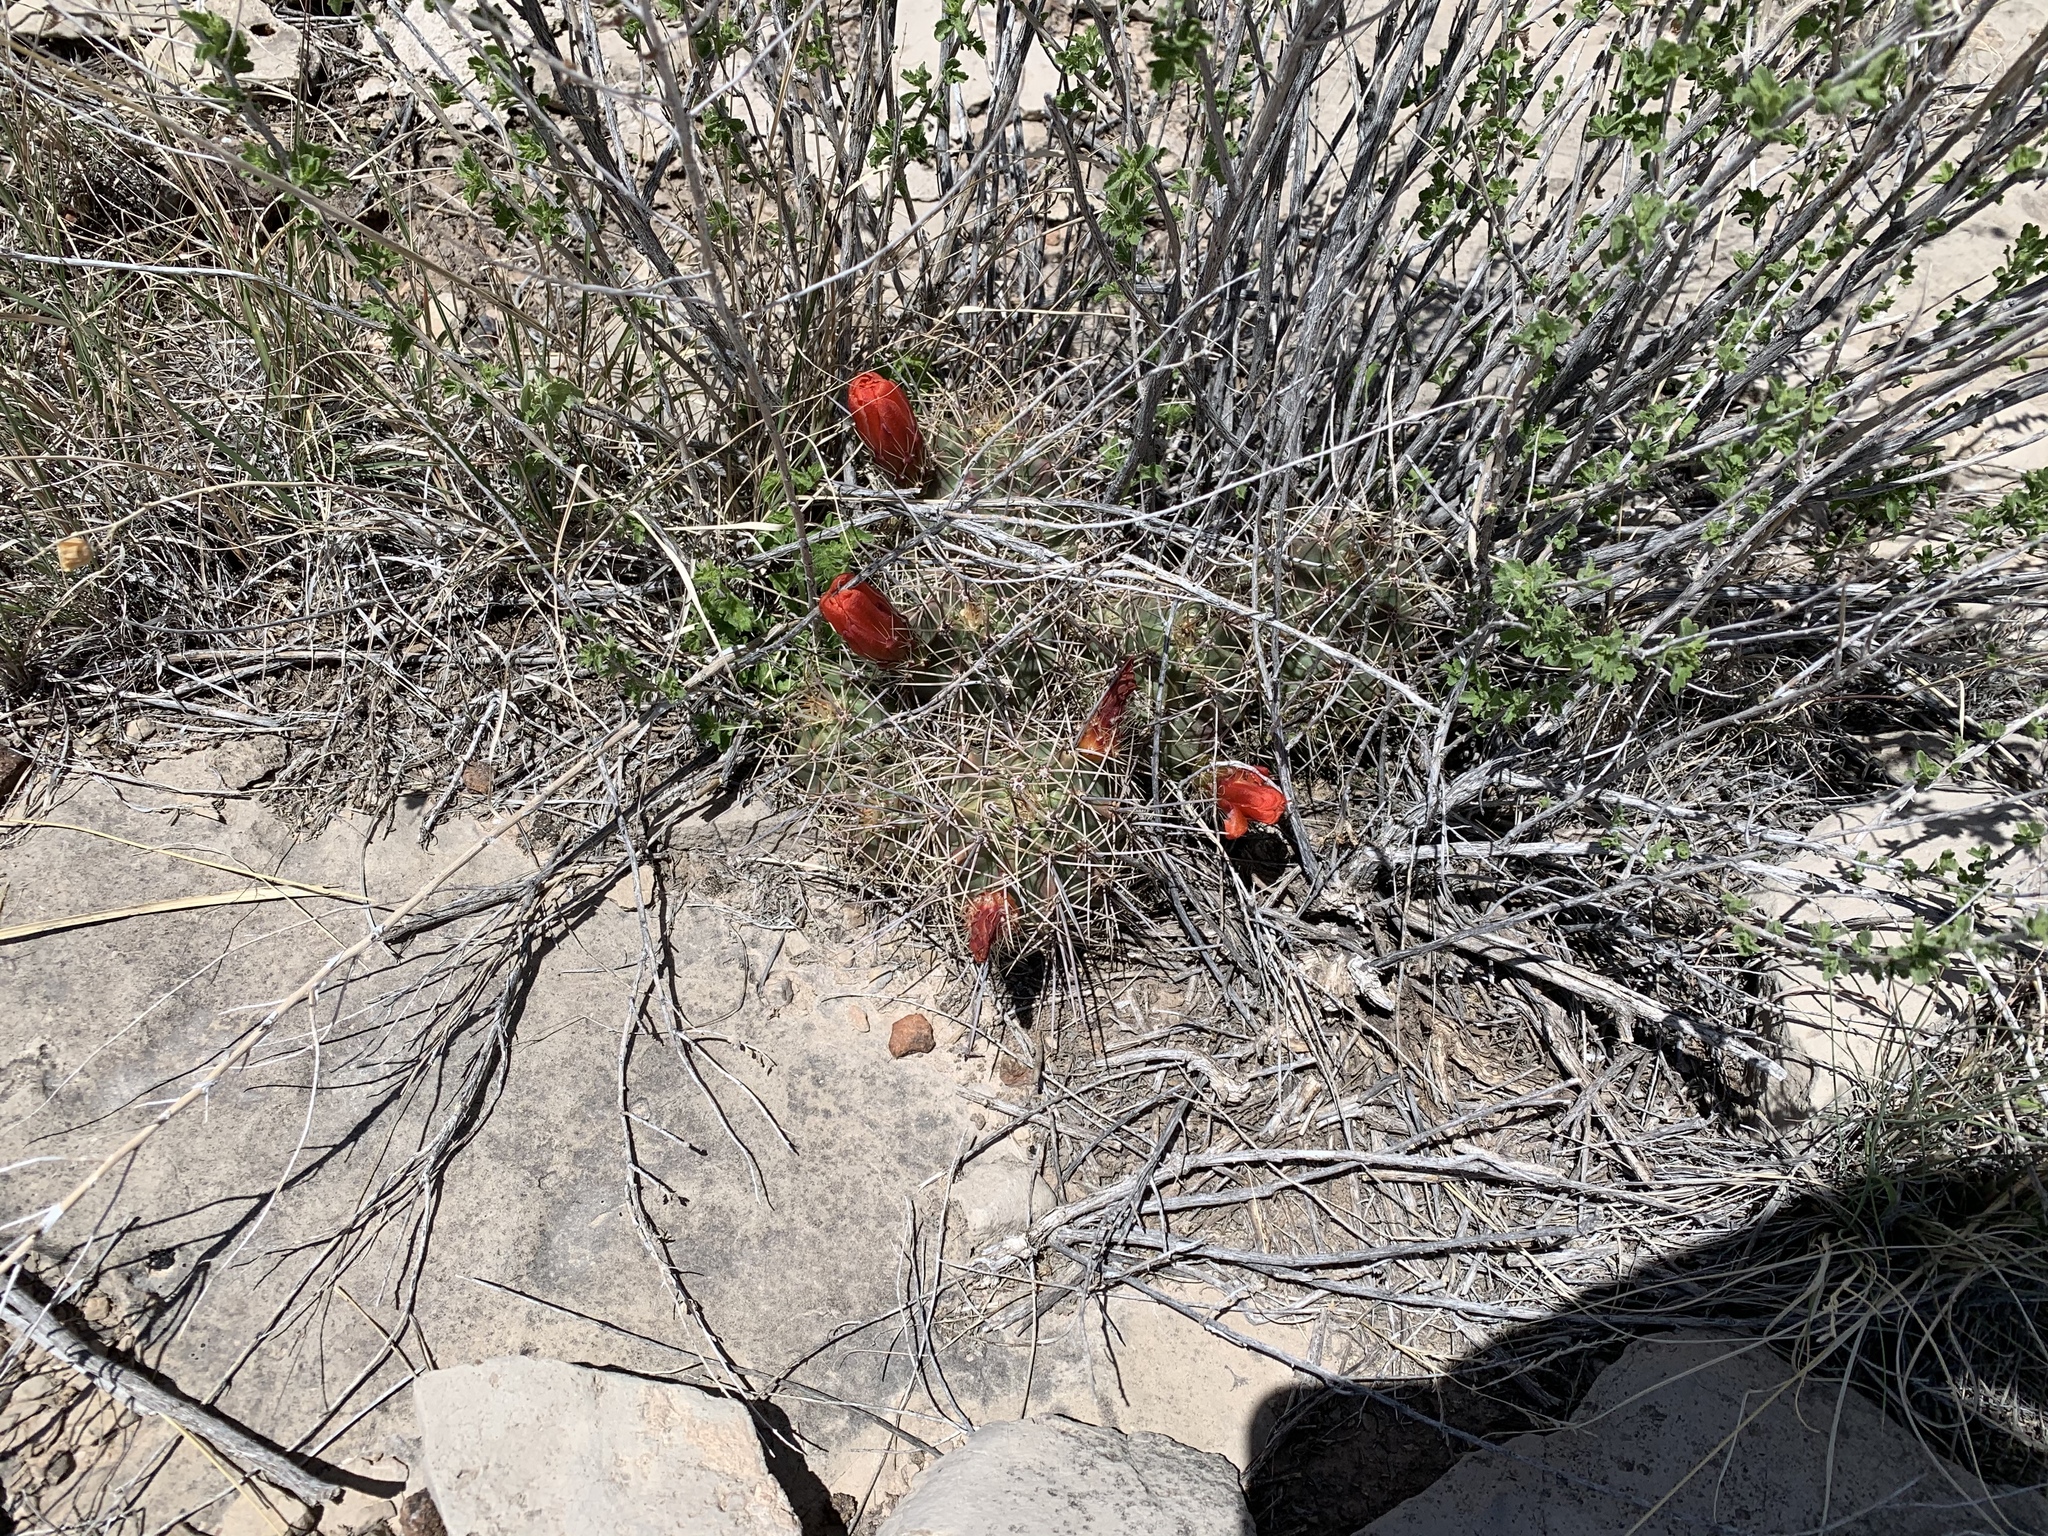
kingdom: Plantae
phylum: Tracheophyta
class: Magnoliopsida
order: Caryophyllales
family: Cactaceae
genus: Echinocereus
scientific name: Echinocereus coccineus
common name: Scarlet hedgehog cactus
